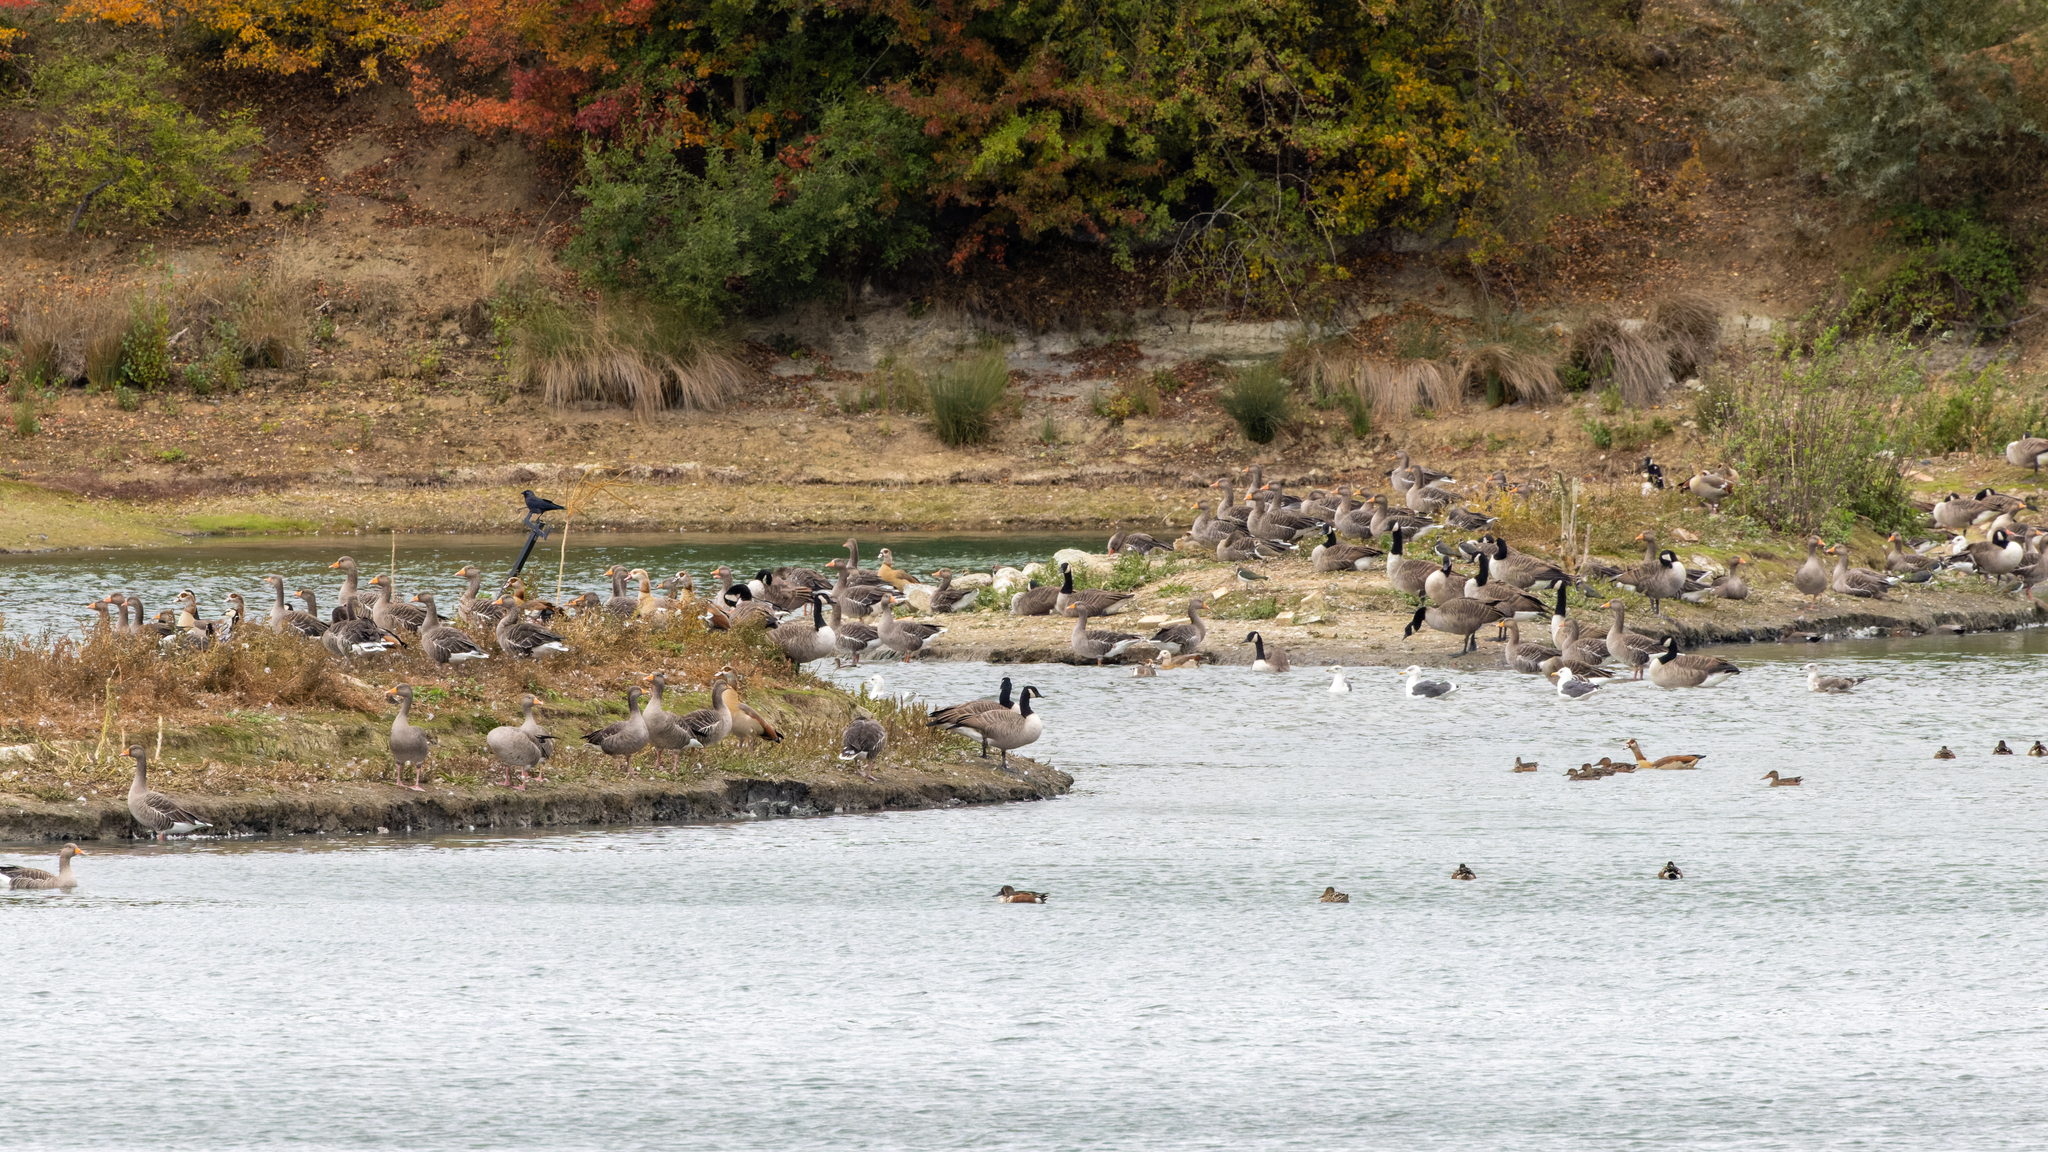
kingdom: Animalia
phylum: Chordata
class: Aves
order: Anseriformes
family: Anatidae
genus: Alopochen
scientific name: Alopochen aegyptiaca
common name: Egyptian goose
